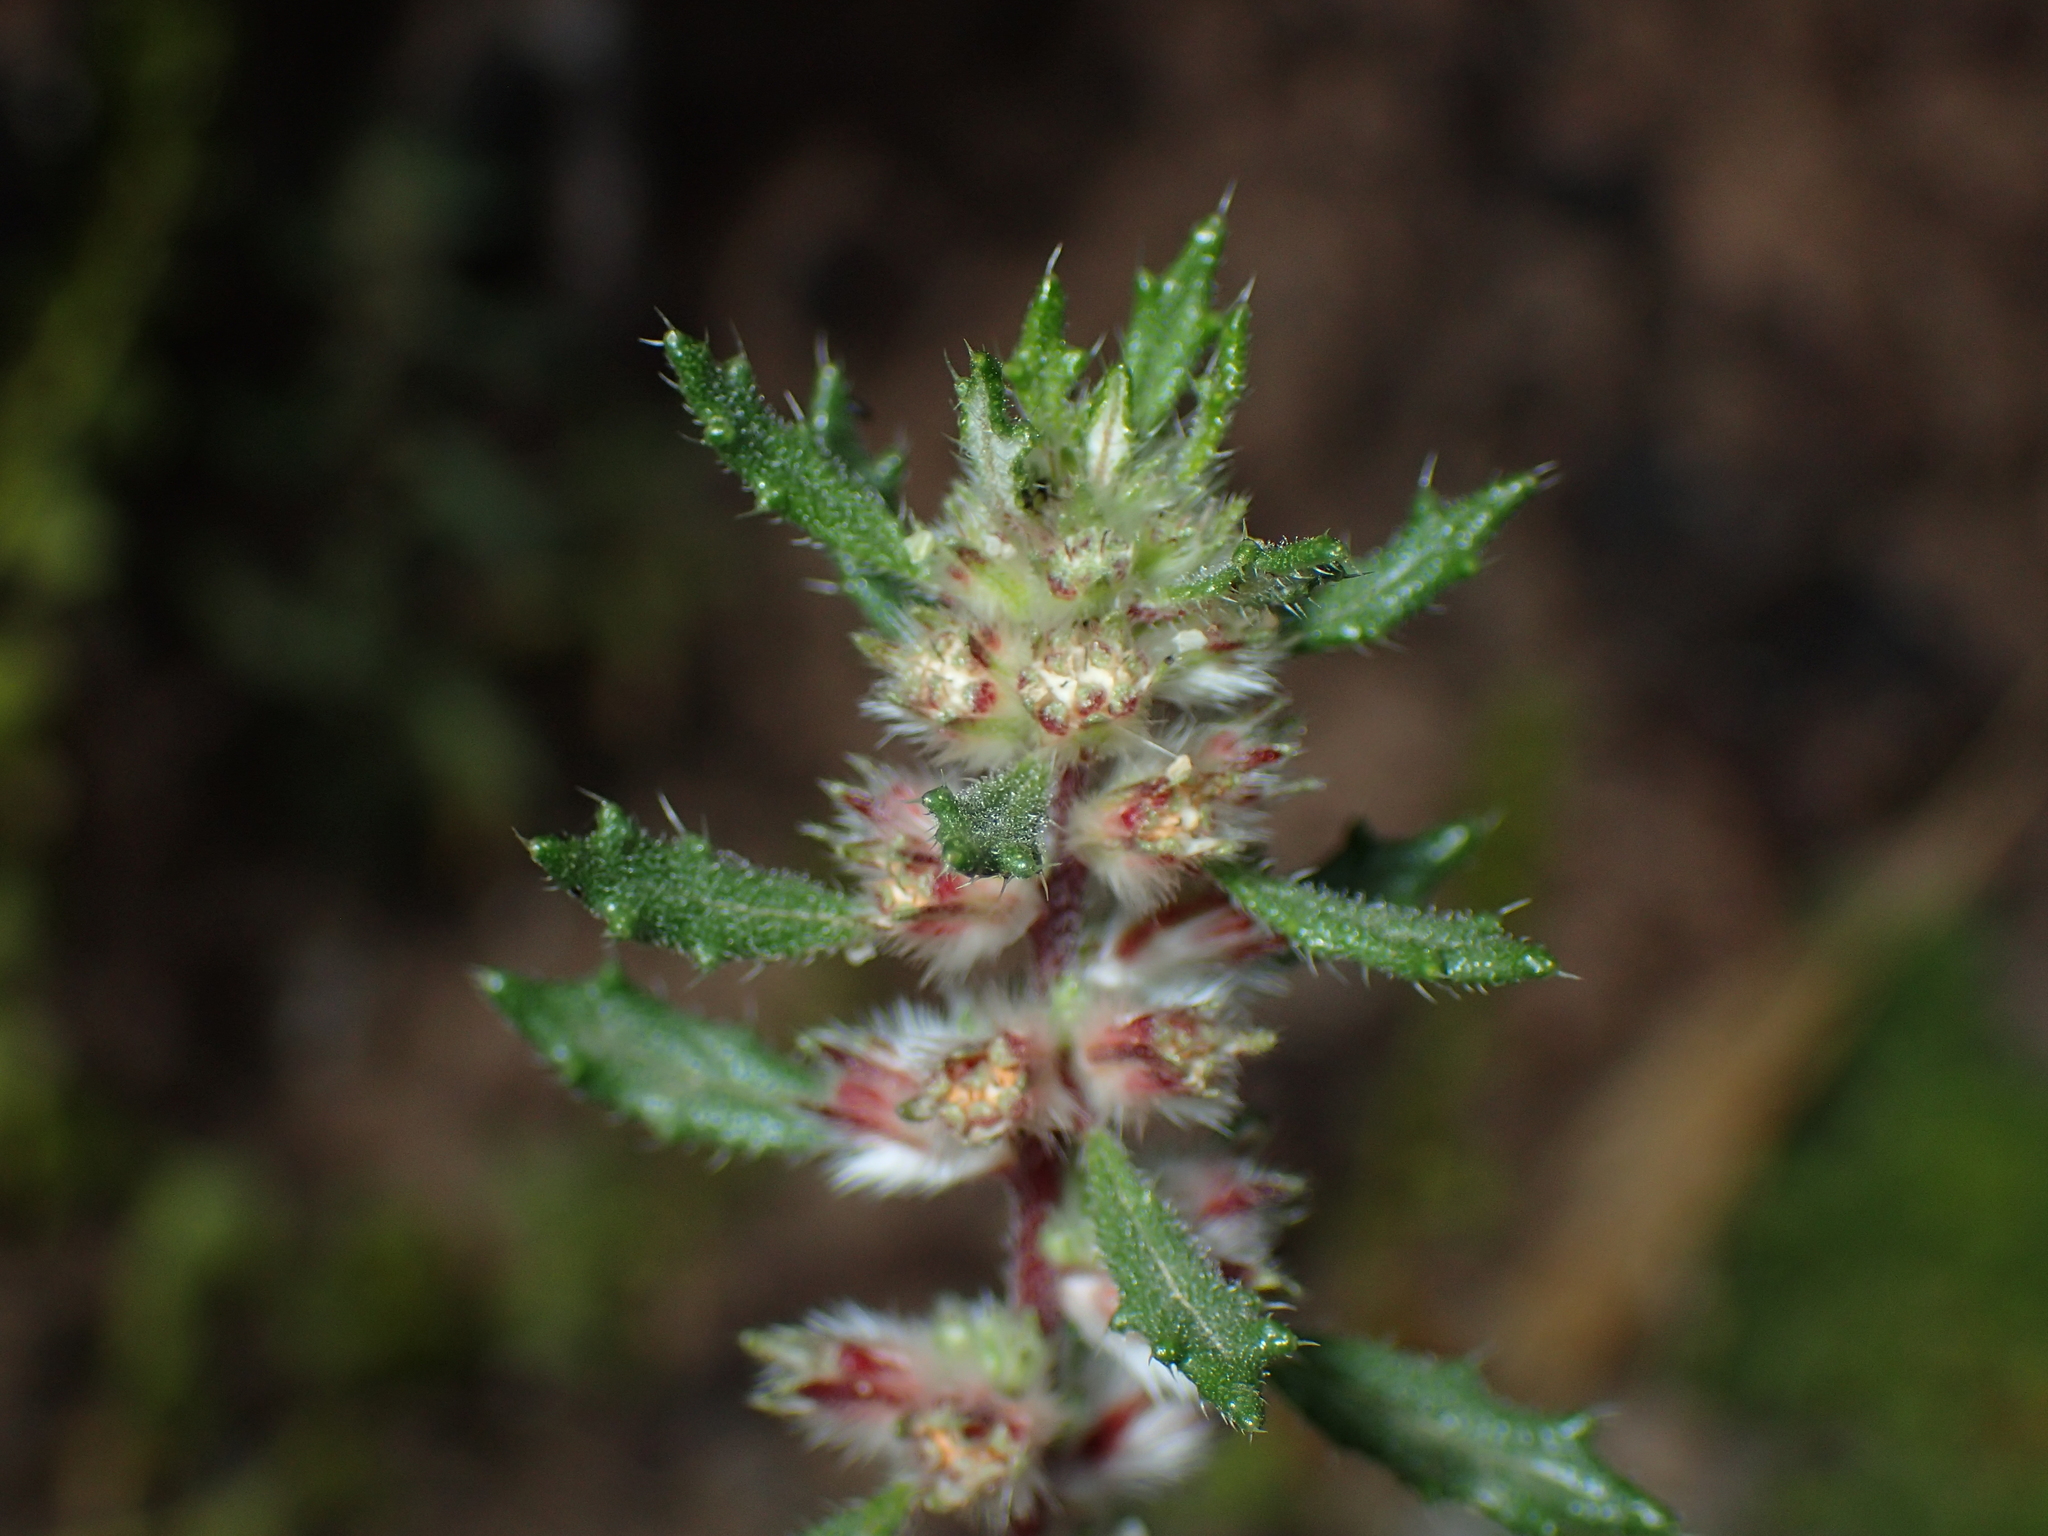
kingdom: Plantae
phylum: Tracheophyta
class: Magnoliopsida
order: Rosales
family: Urticaceae
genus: Forsskaolea
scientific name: Forsskaolea angustifolia
